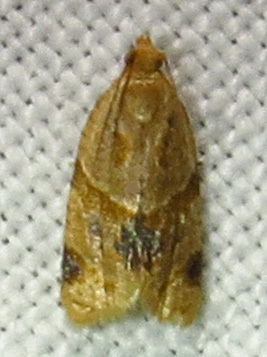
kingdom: Animalia
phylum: Arthropoda
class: Insecta
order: Lepidoptera
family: Tortricidae
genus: Clepsis
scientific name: Clepsis peritana
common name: Garden tortrix
